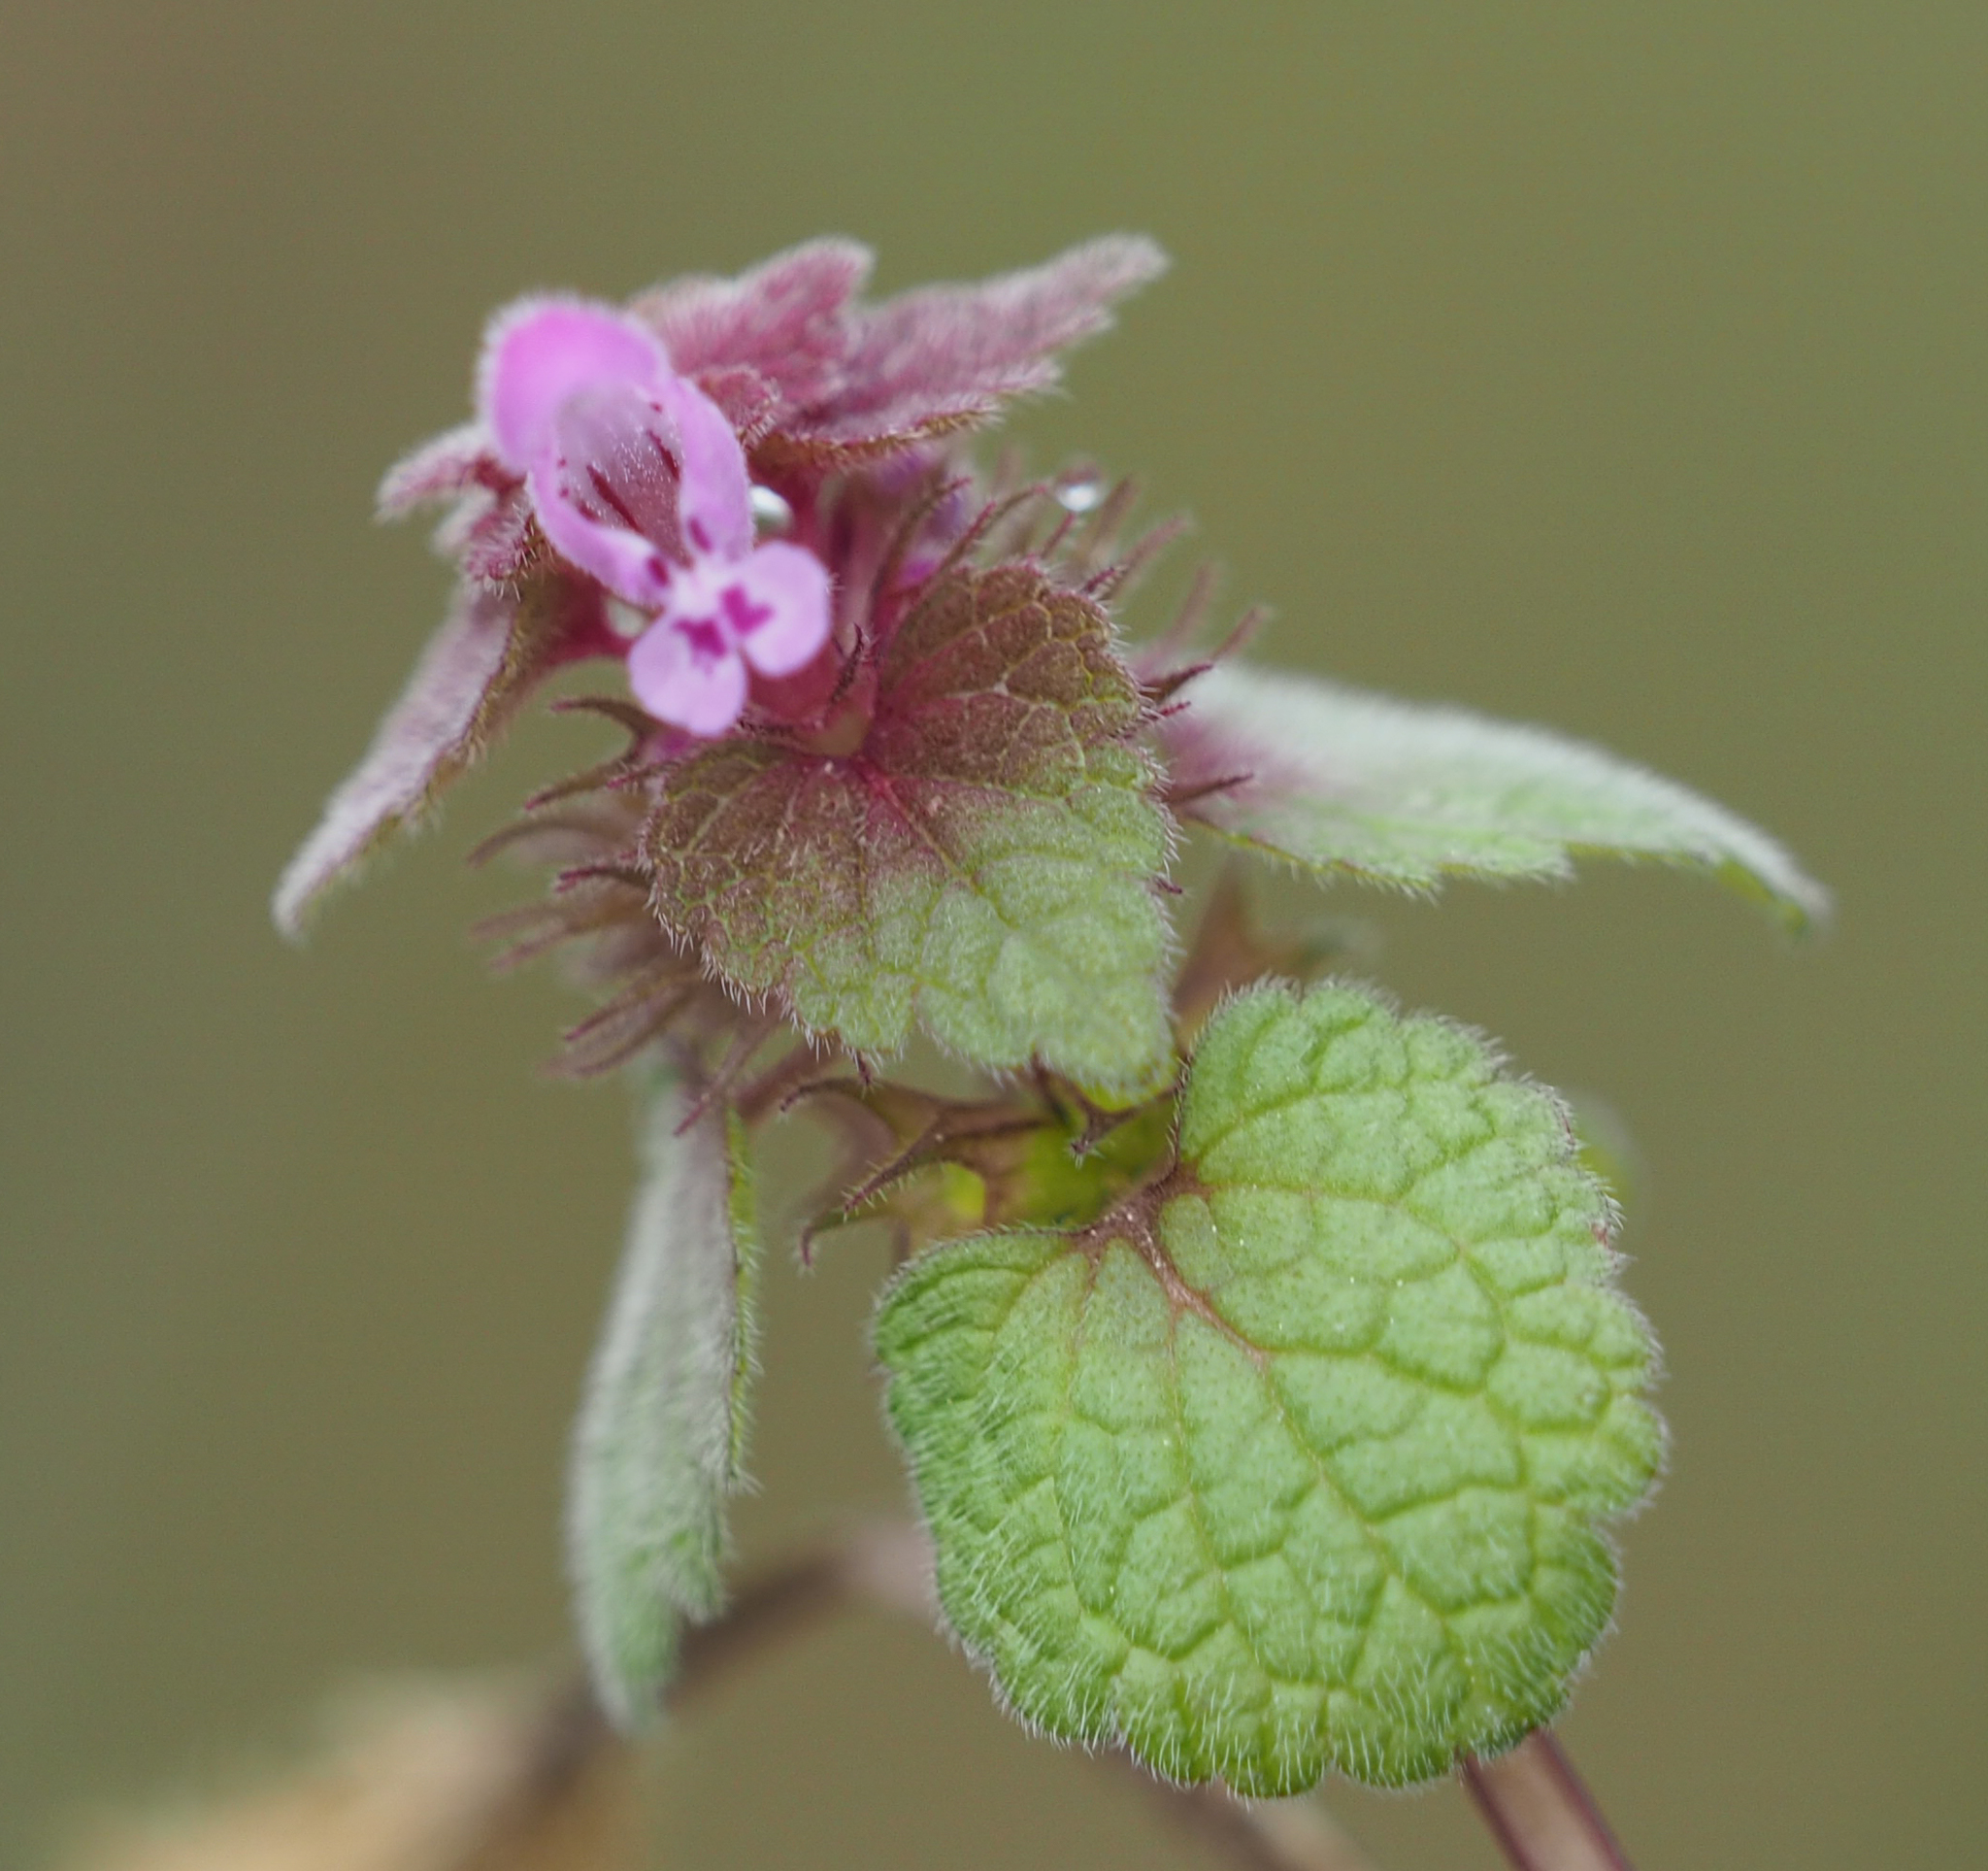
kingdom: Plantae
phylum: Tracheophyta
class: Magnoliopsida
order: Lamiales
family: Lamiaceae
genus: Lamium
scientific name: Lamium purpureum
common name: Red dead-nettle
